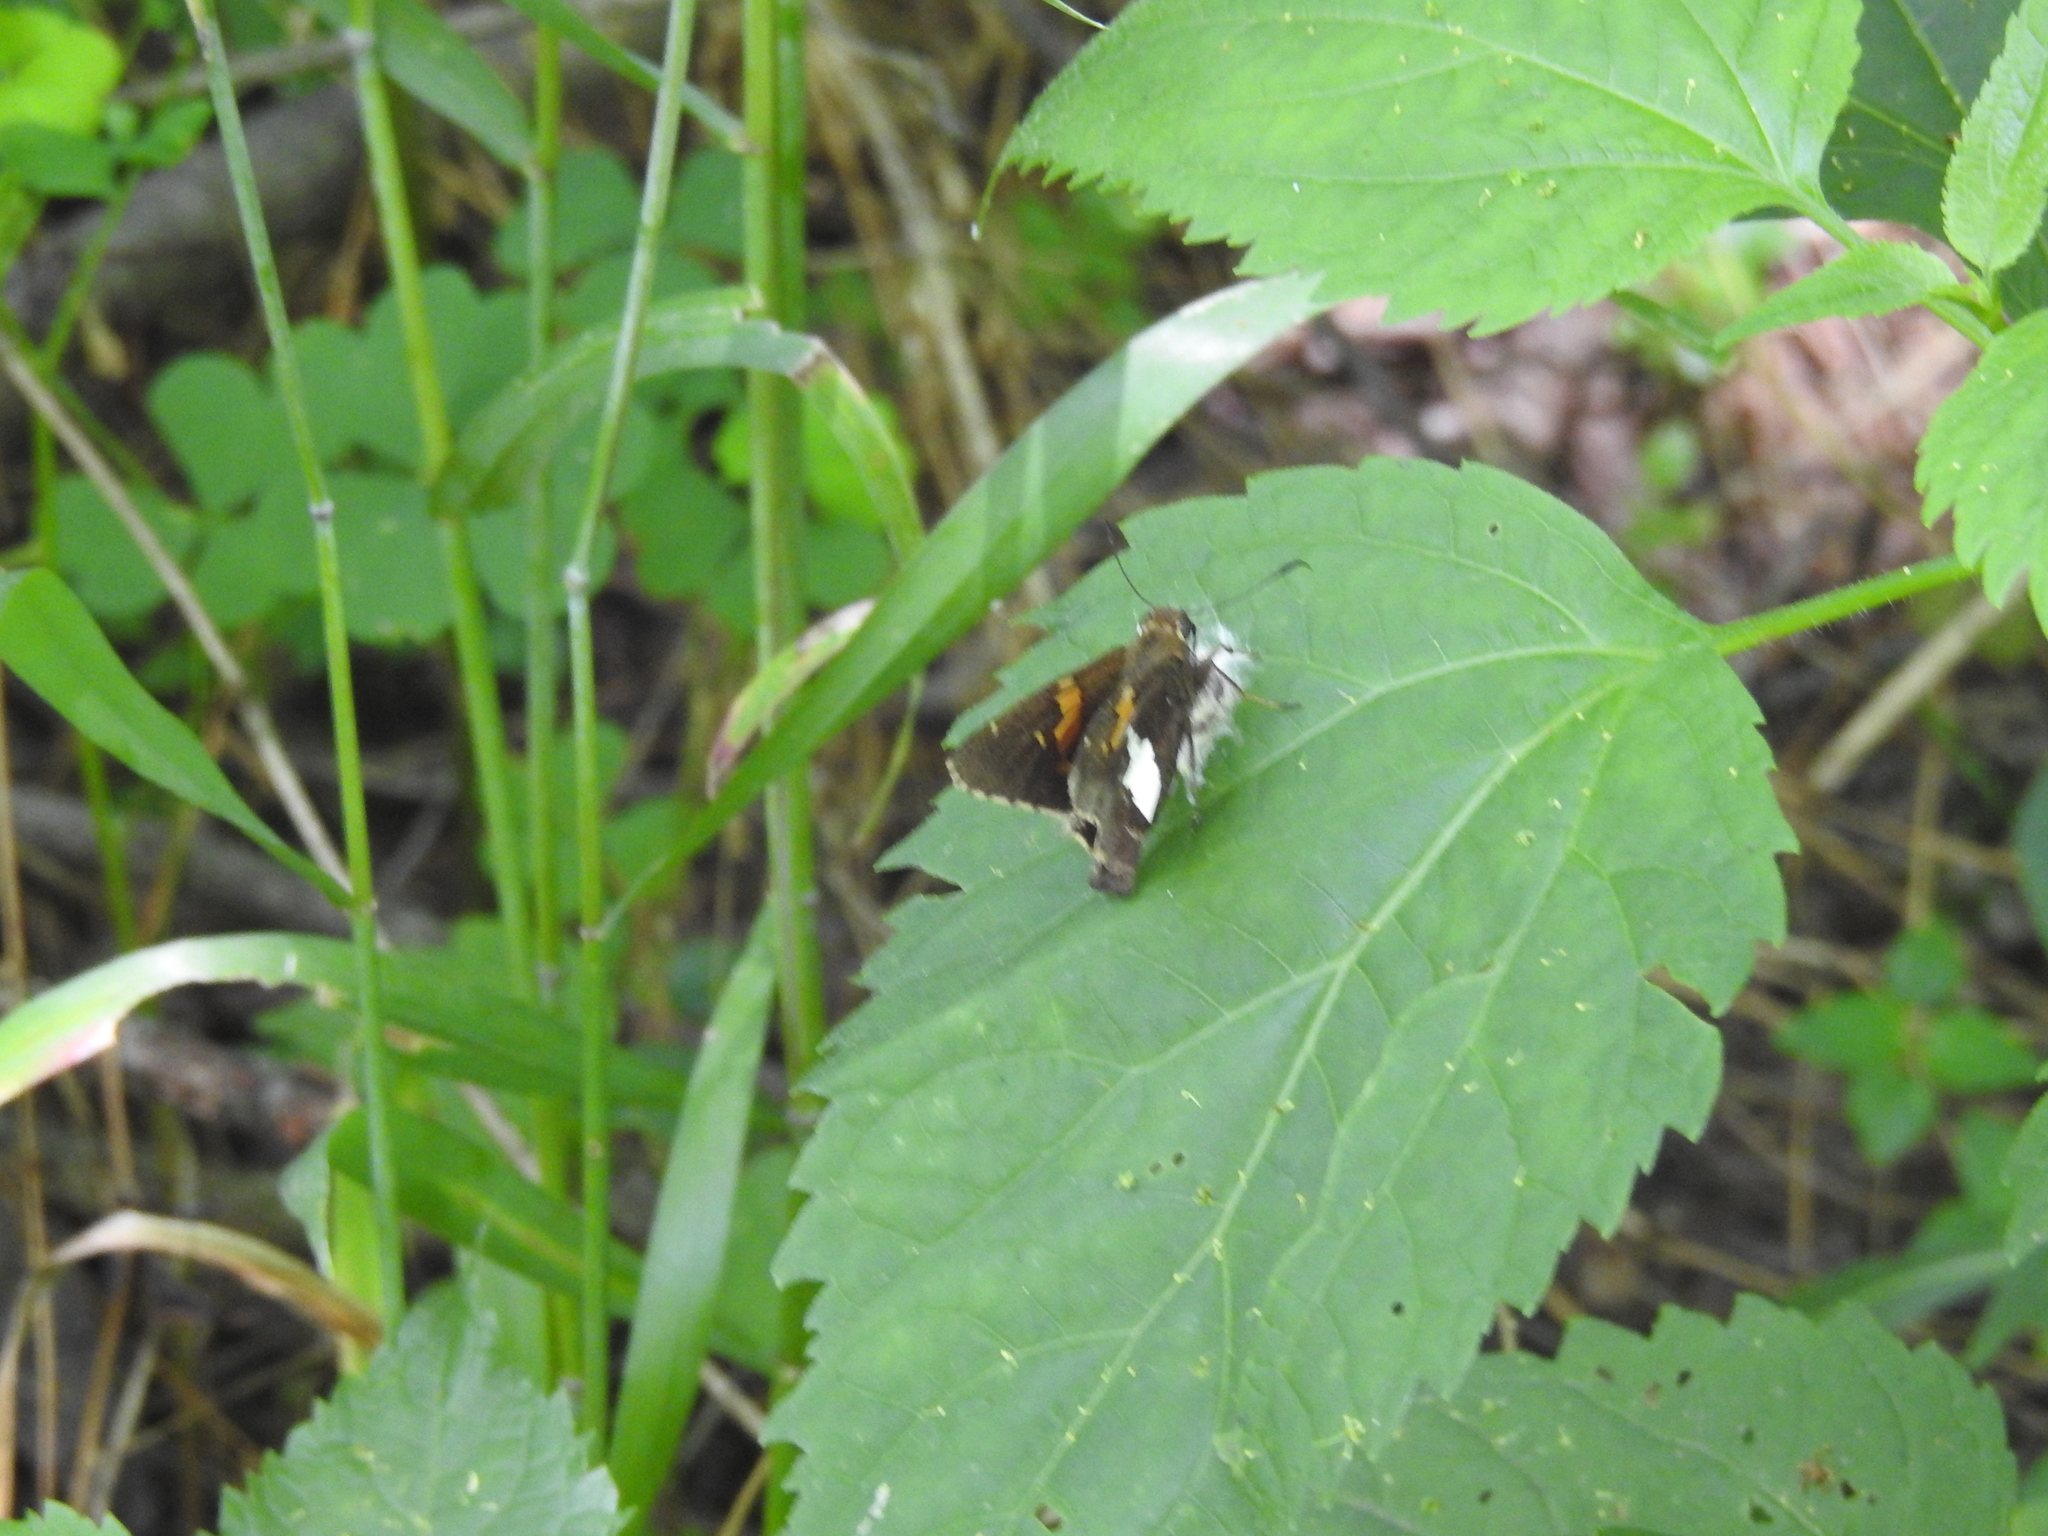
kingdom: Animalia
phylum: Arthropoda
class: Insecta
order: Lepidoptera
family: Hesperiidae
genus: Epargyreus
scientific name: Epargyreus clarus
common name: Silver-spotted skipper
